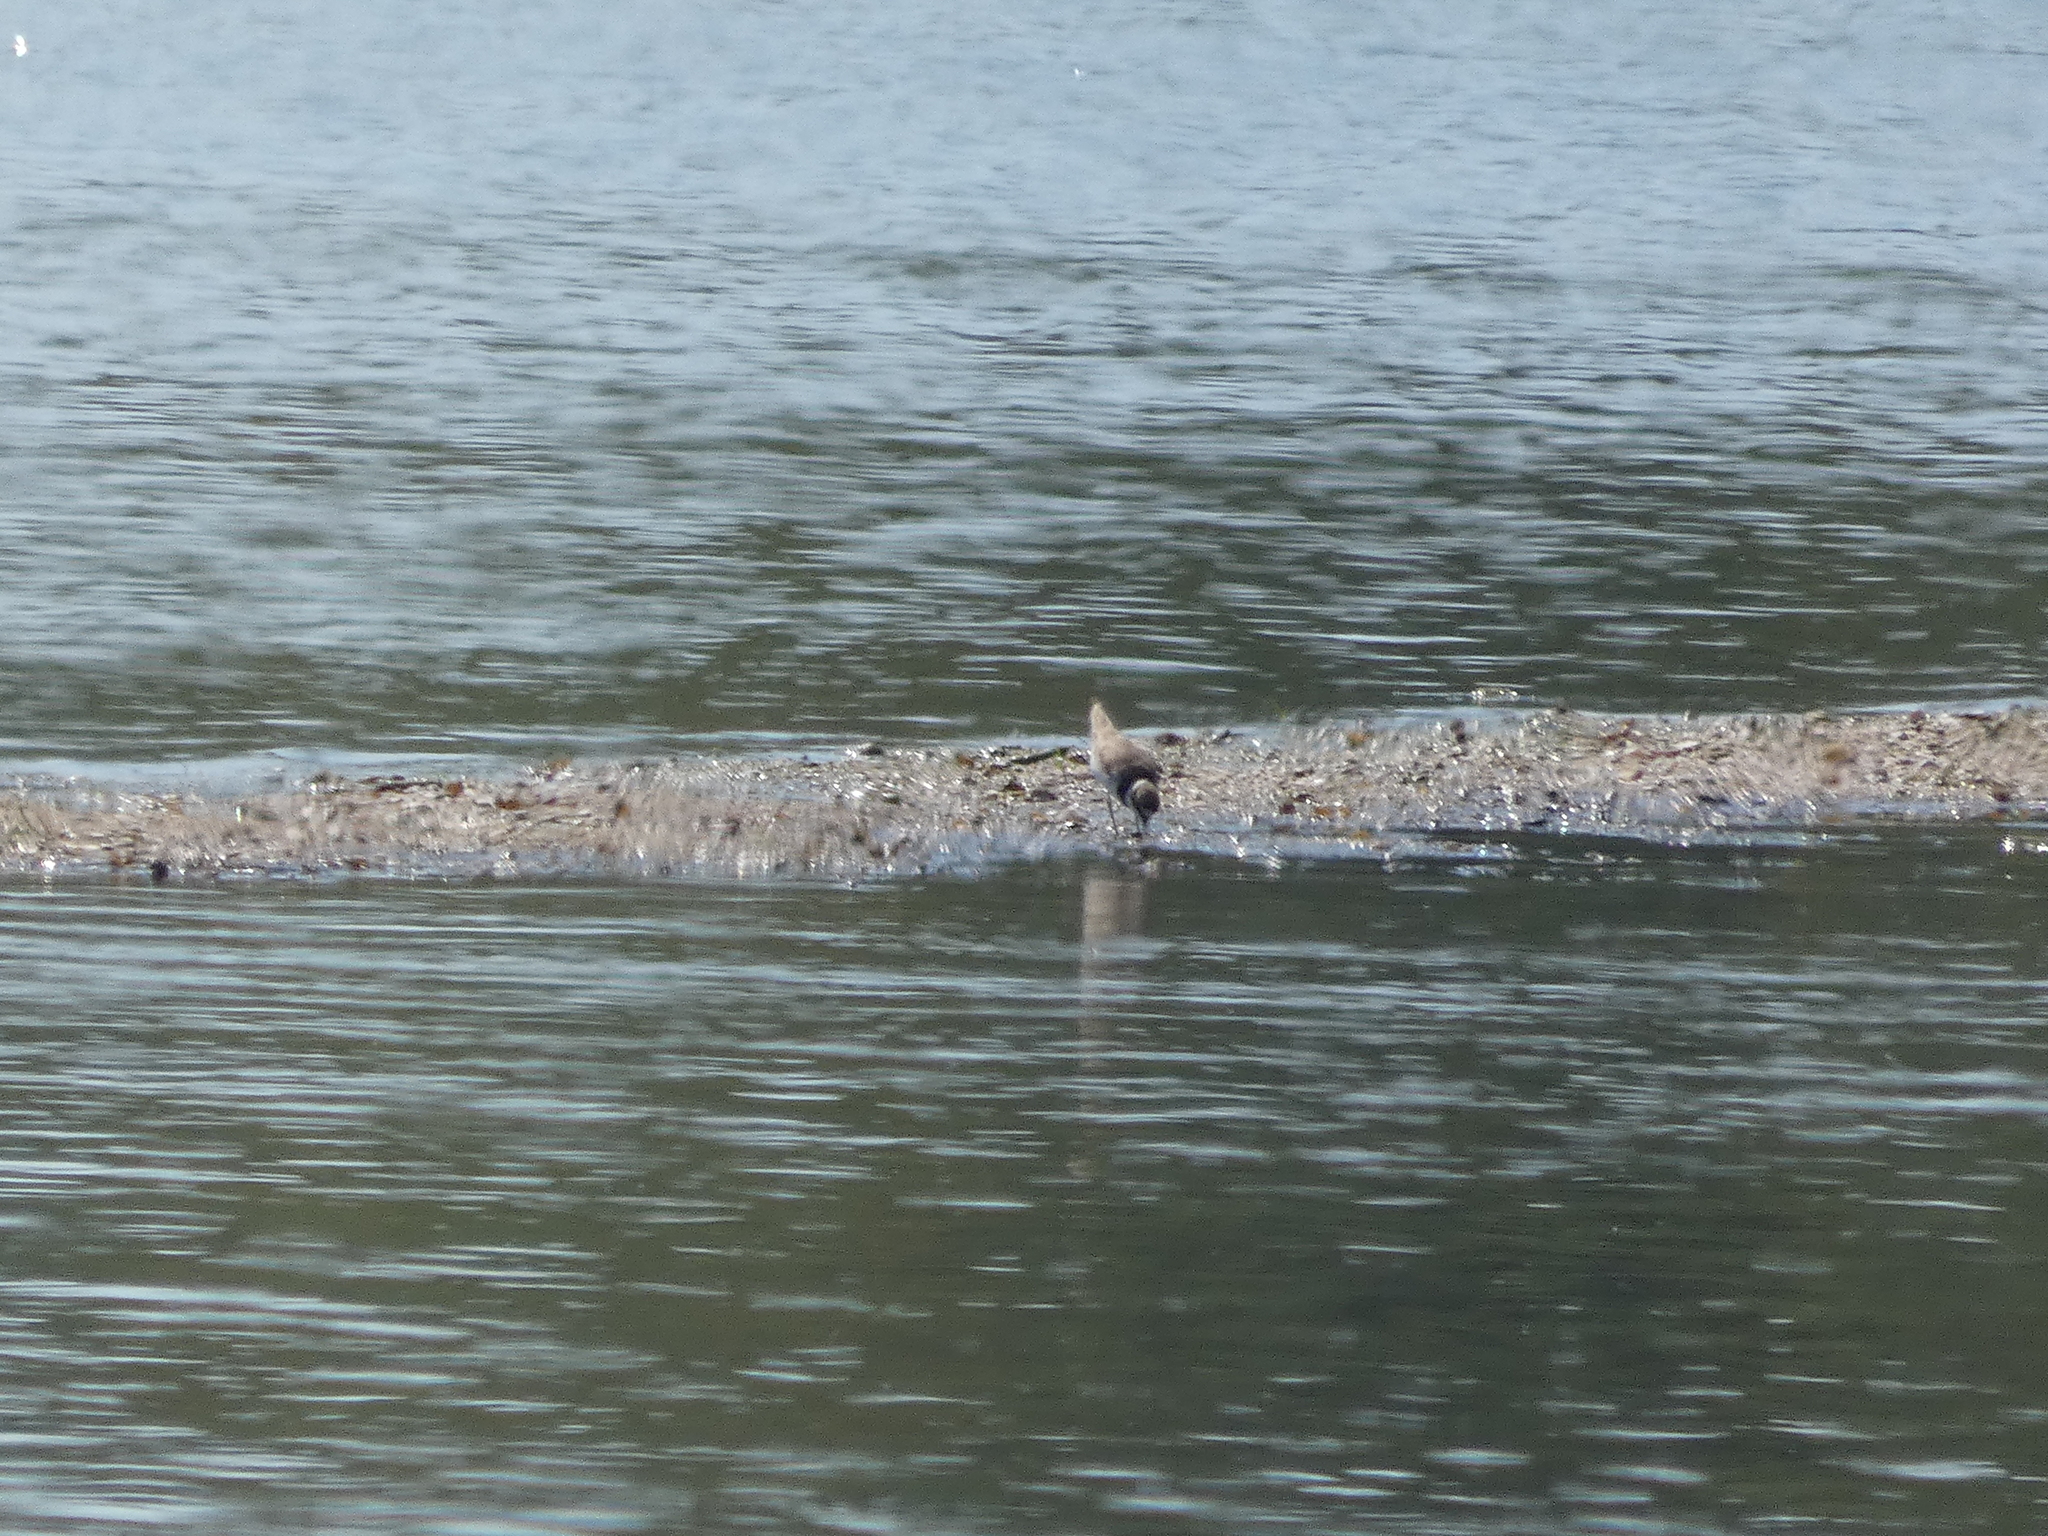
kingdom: Animalia
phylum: Chordata
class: Aves
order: Charadriiformes
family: Charadriidae
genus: Charadrius
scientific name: Charadrius dubius
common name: Little ringed plover
